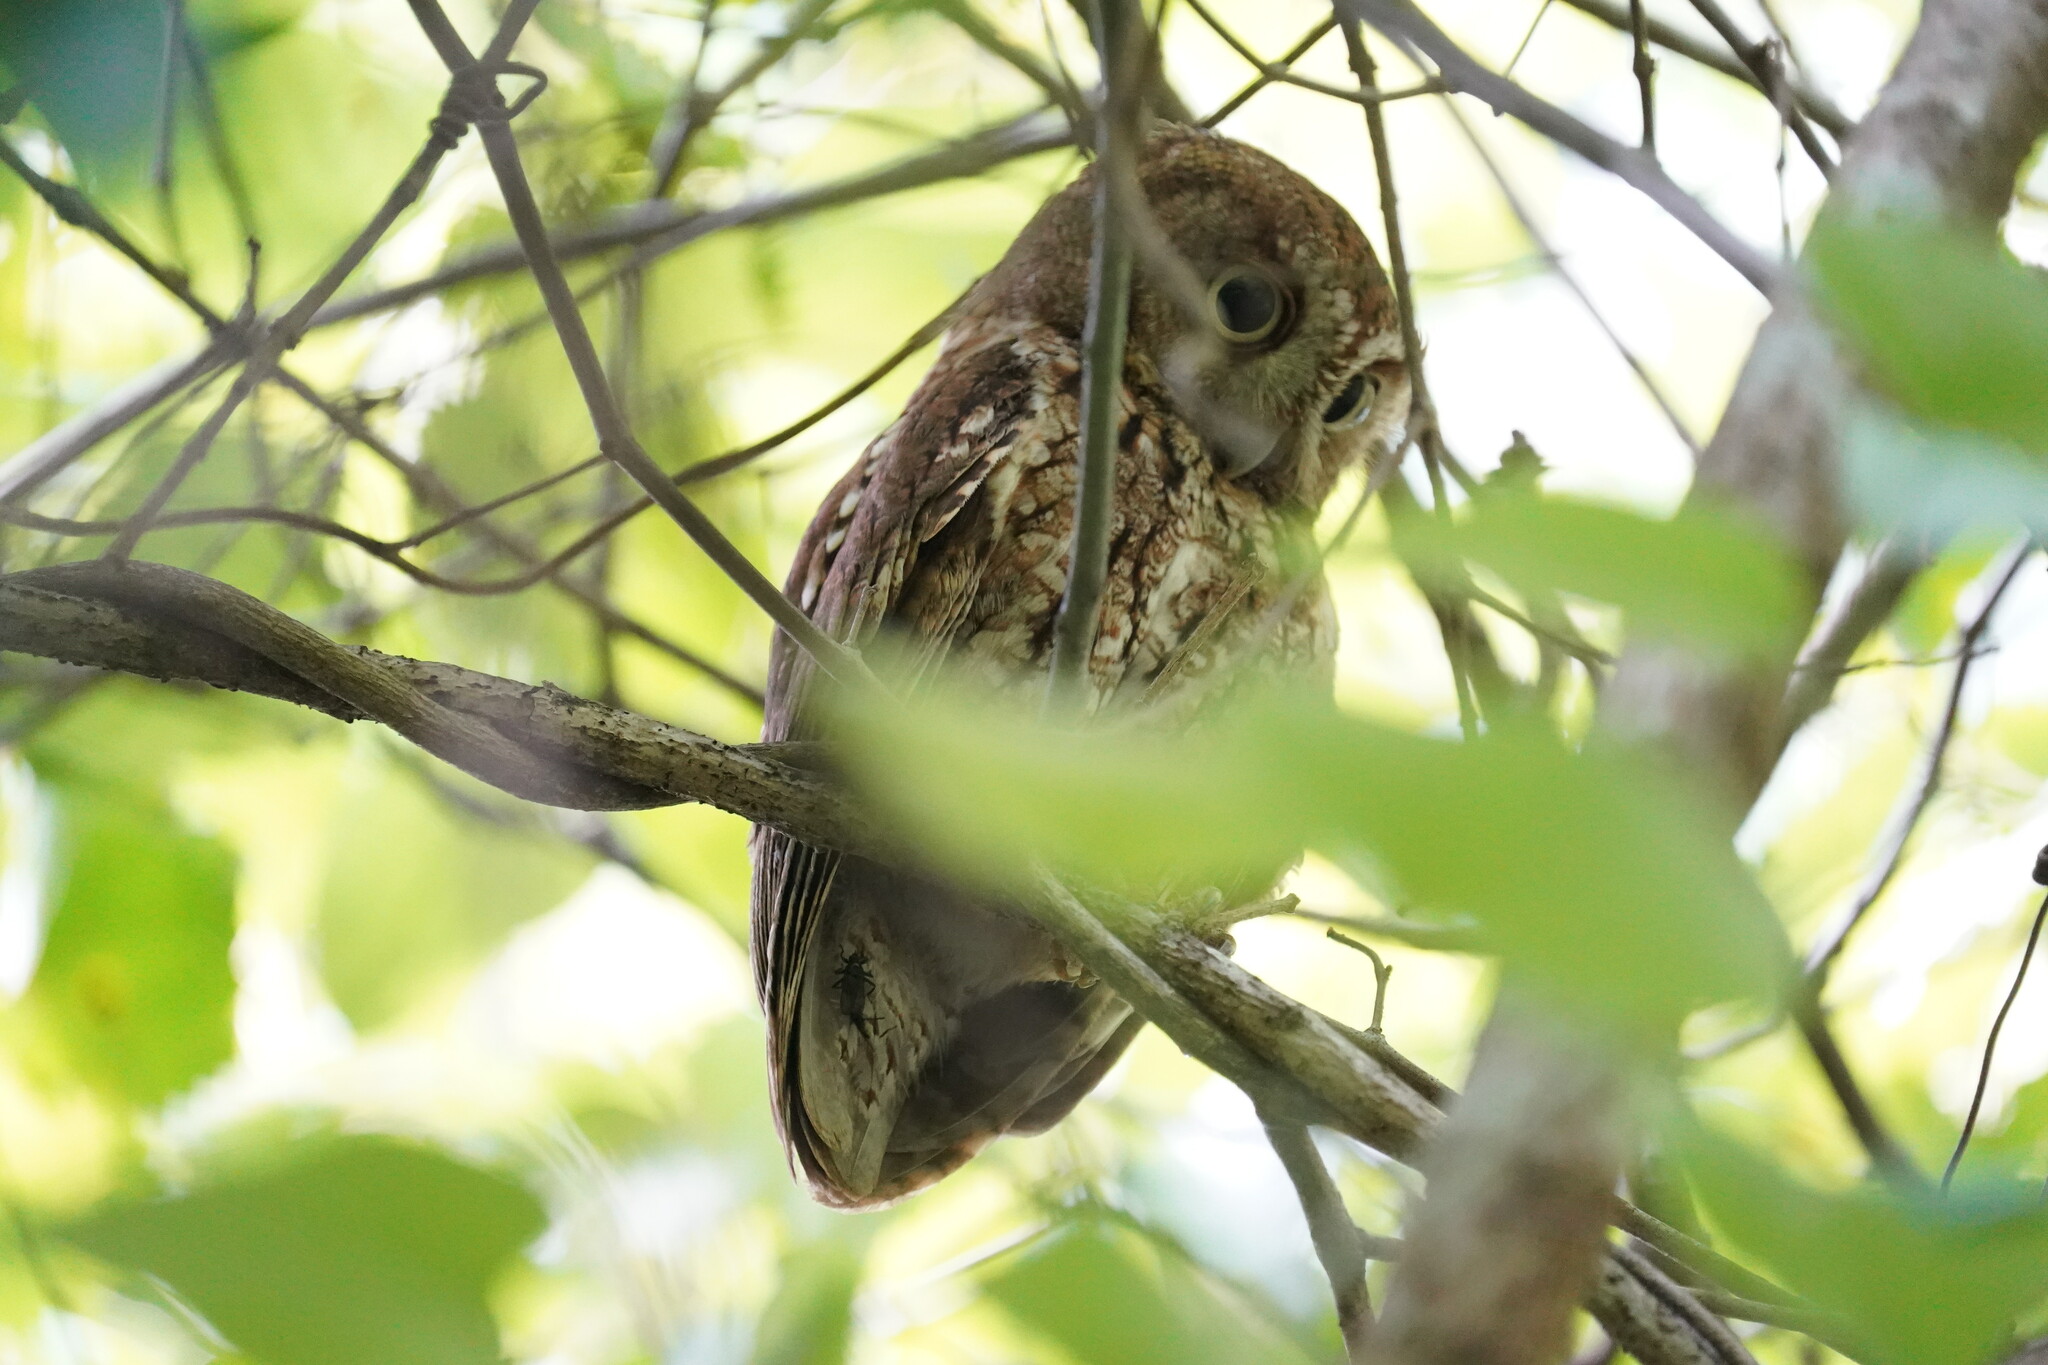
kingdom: Animalia
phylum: Chordata
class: Aves
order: Strigiformes
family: Strigidae
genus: Megascops
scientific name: Megascops asio
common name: Eastern screech-owl
